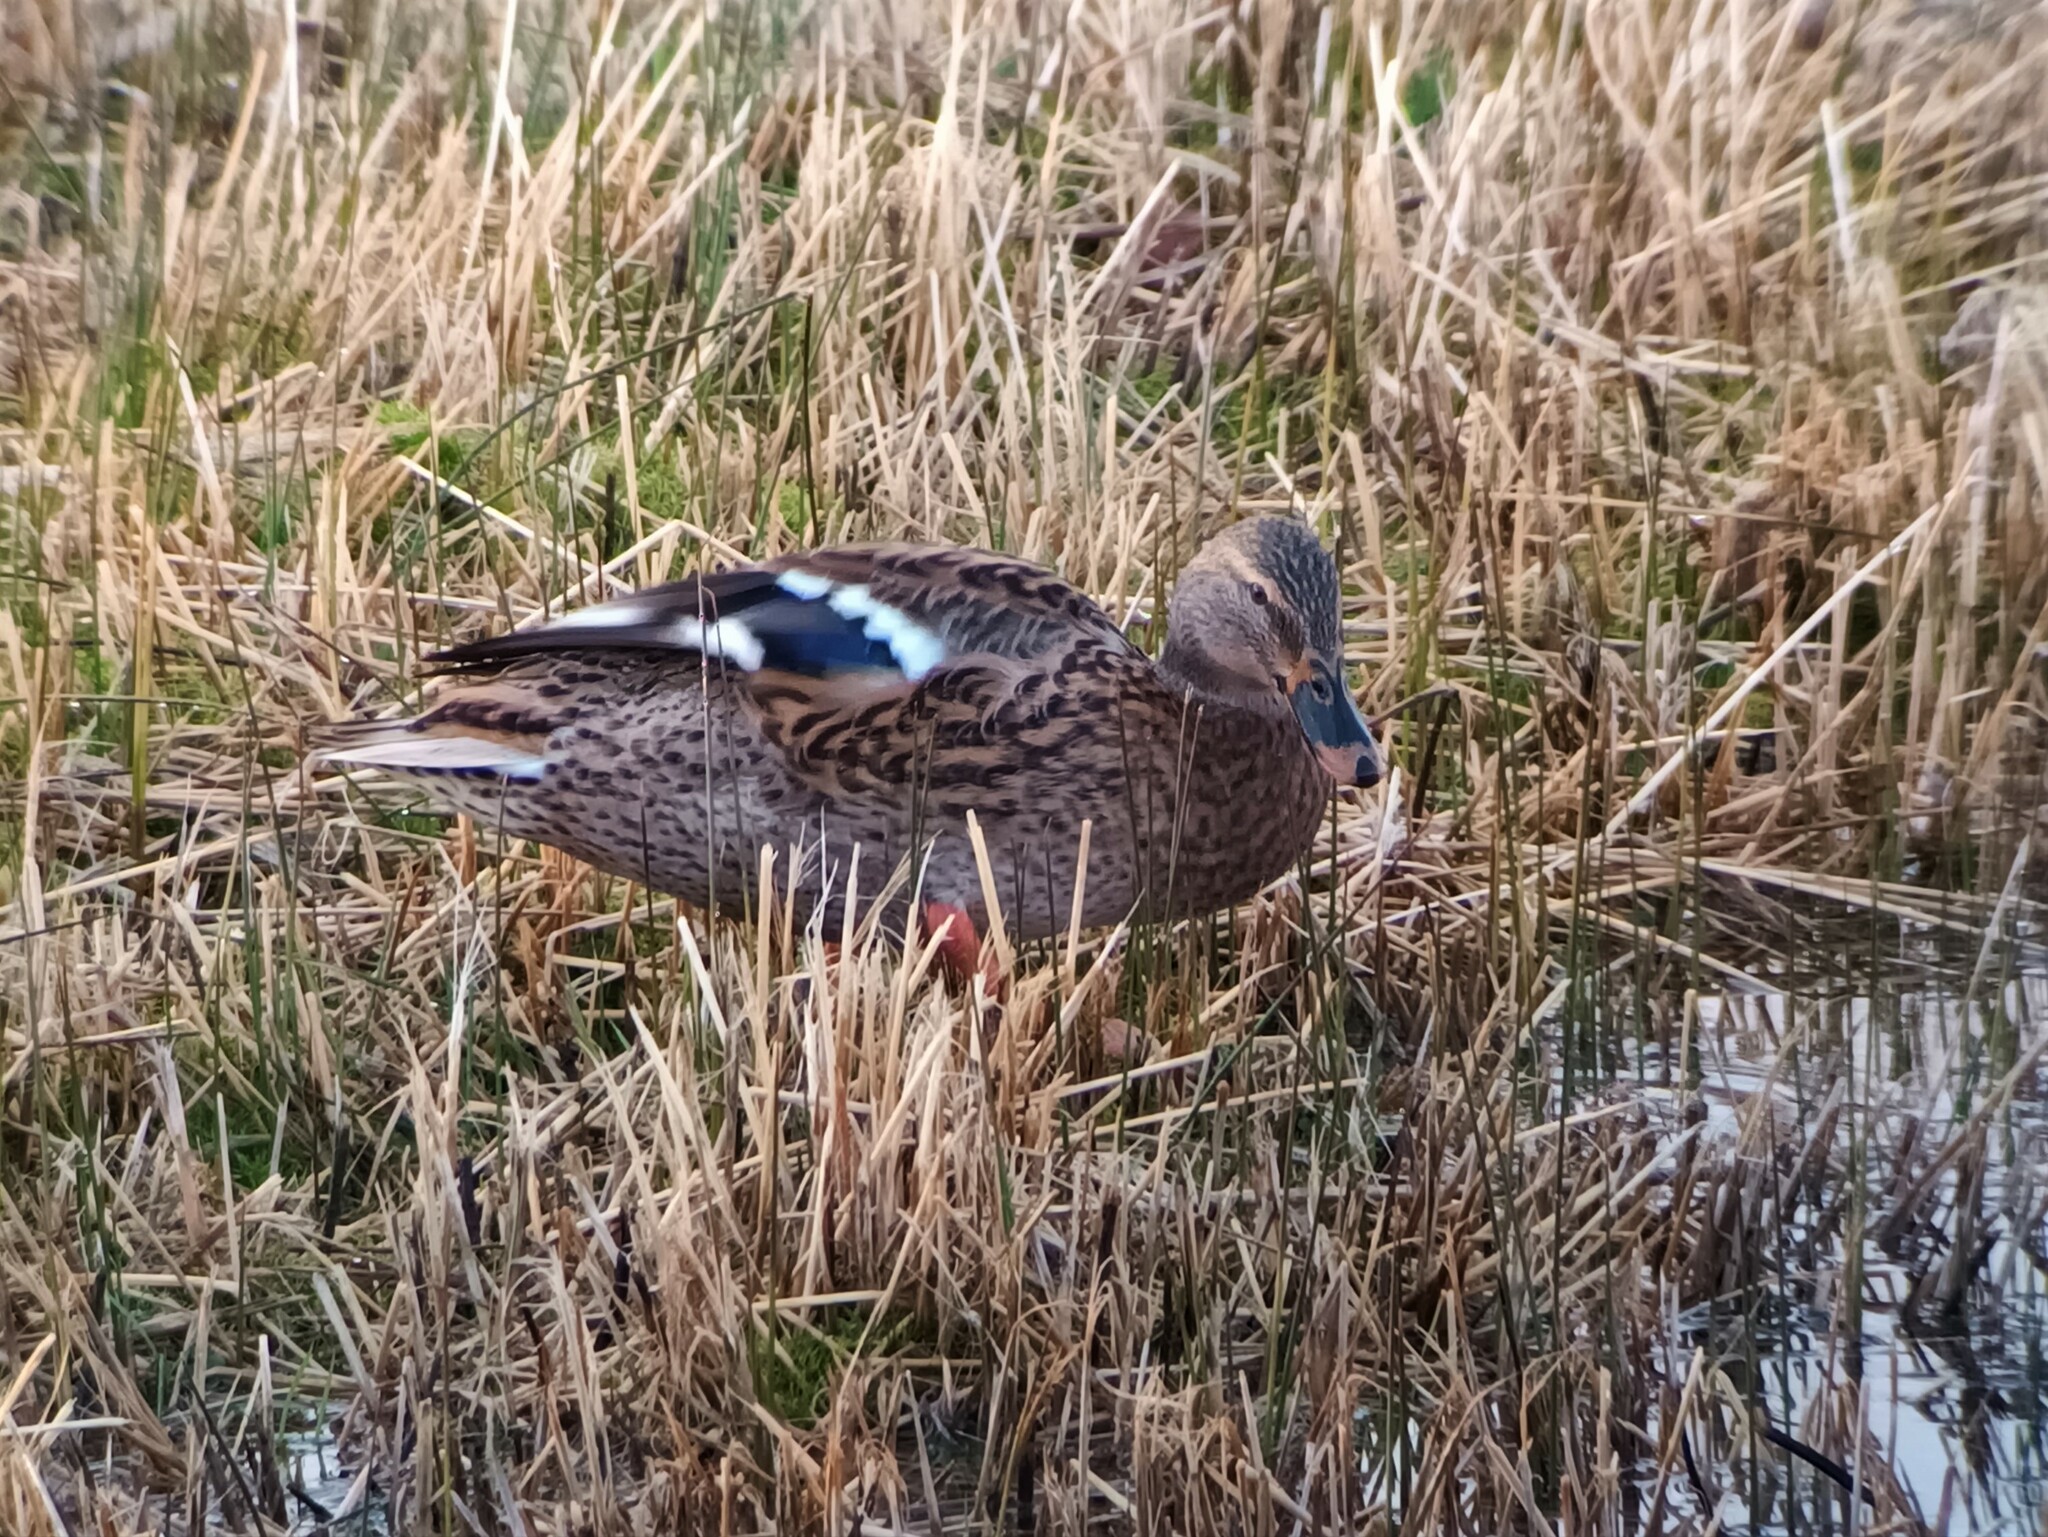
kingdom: Animalia
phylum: Chordata
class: Aves
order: Anseriformes
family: Anatidae
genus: Anas
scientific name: Anas platyrhynchos
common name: Mallard
